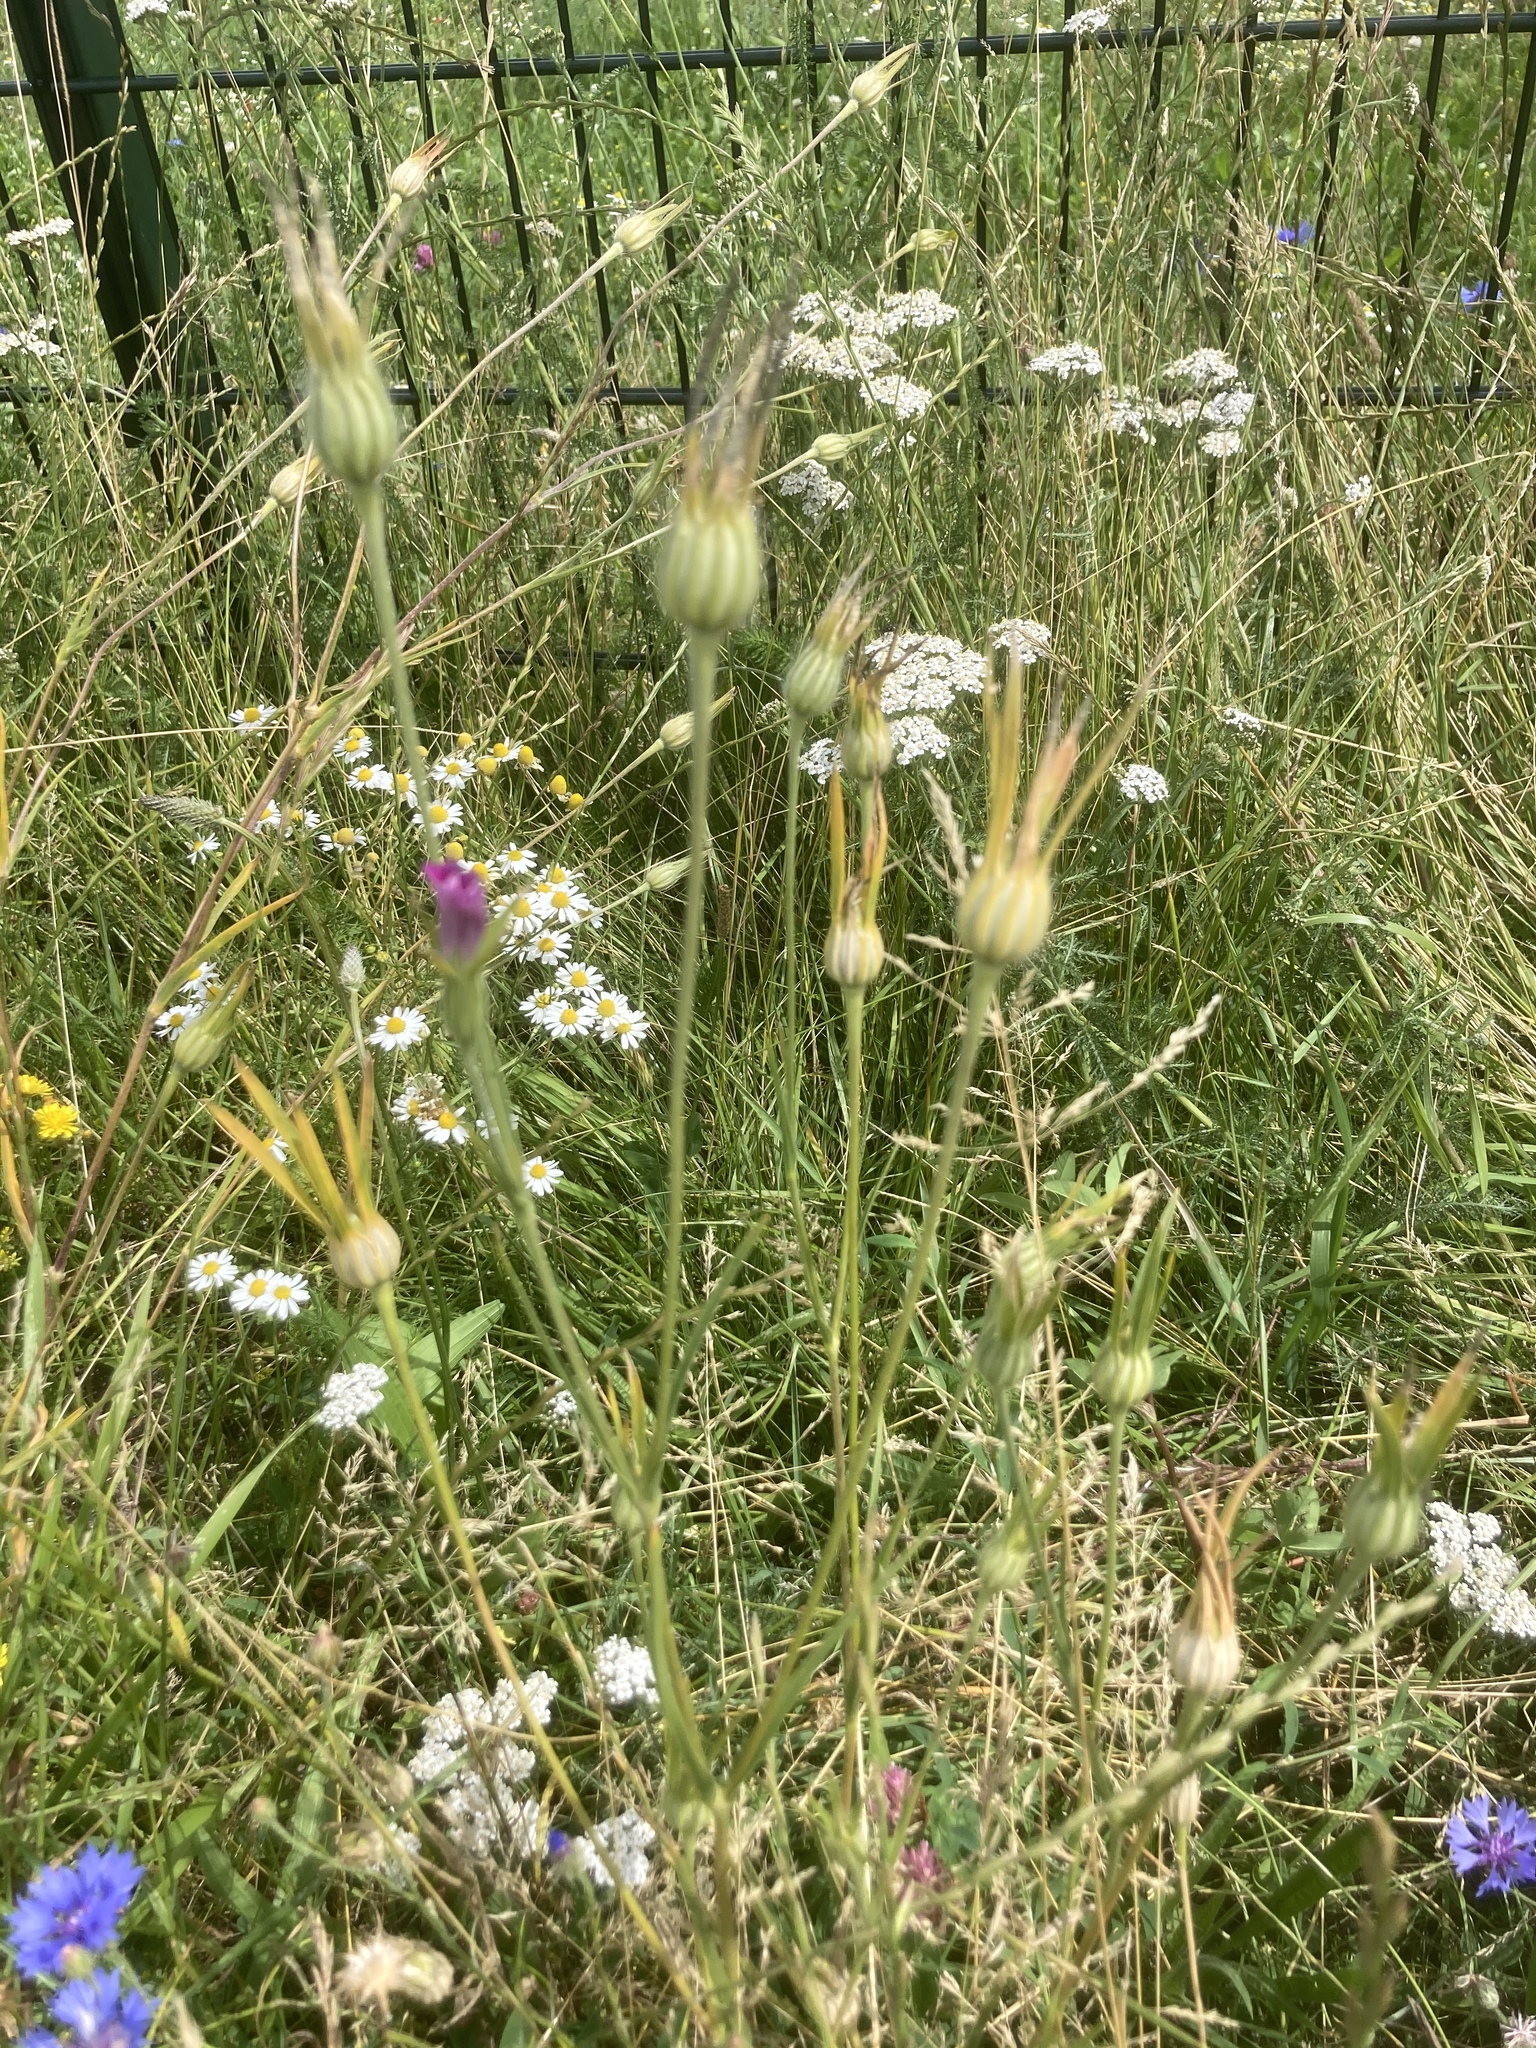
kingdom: Plantae
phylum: Tracheophyta
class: Magnoliopsida
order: Caryophyllales
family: Caryophyllaceae
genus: Agrostemma
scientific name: Agrostemma githago
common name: Common corncockle
